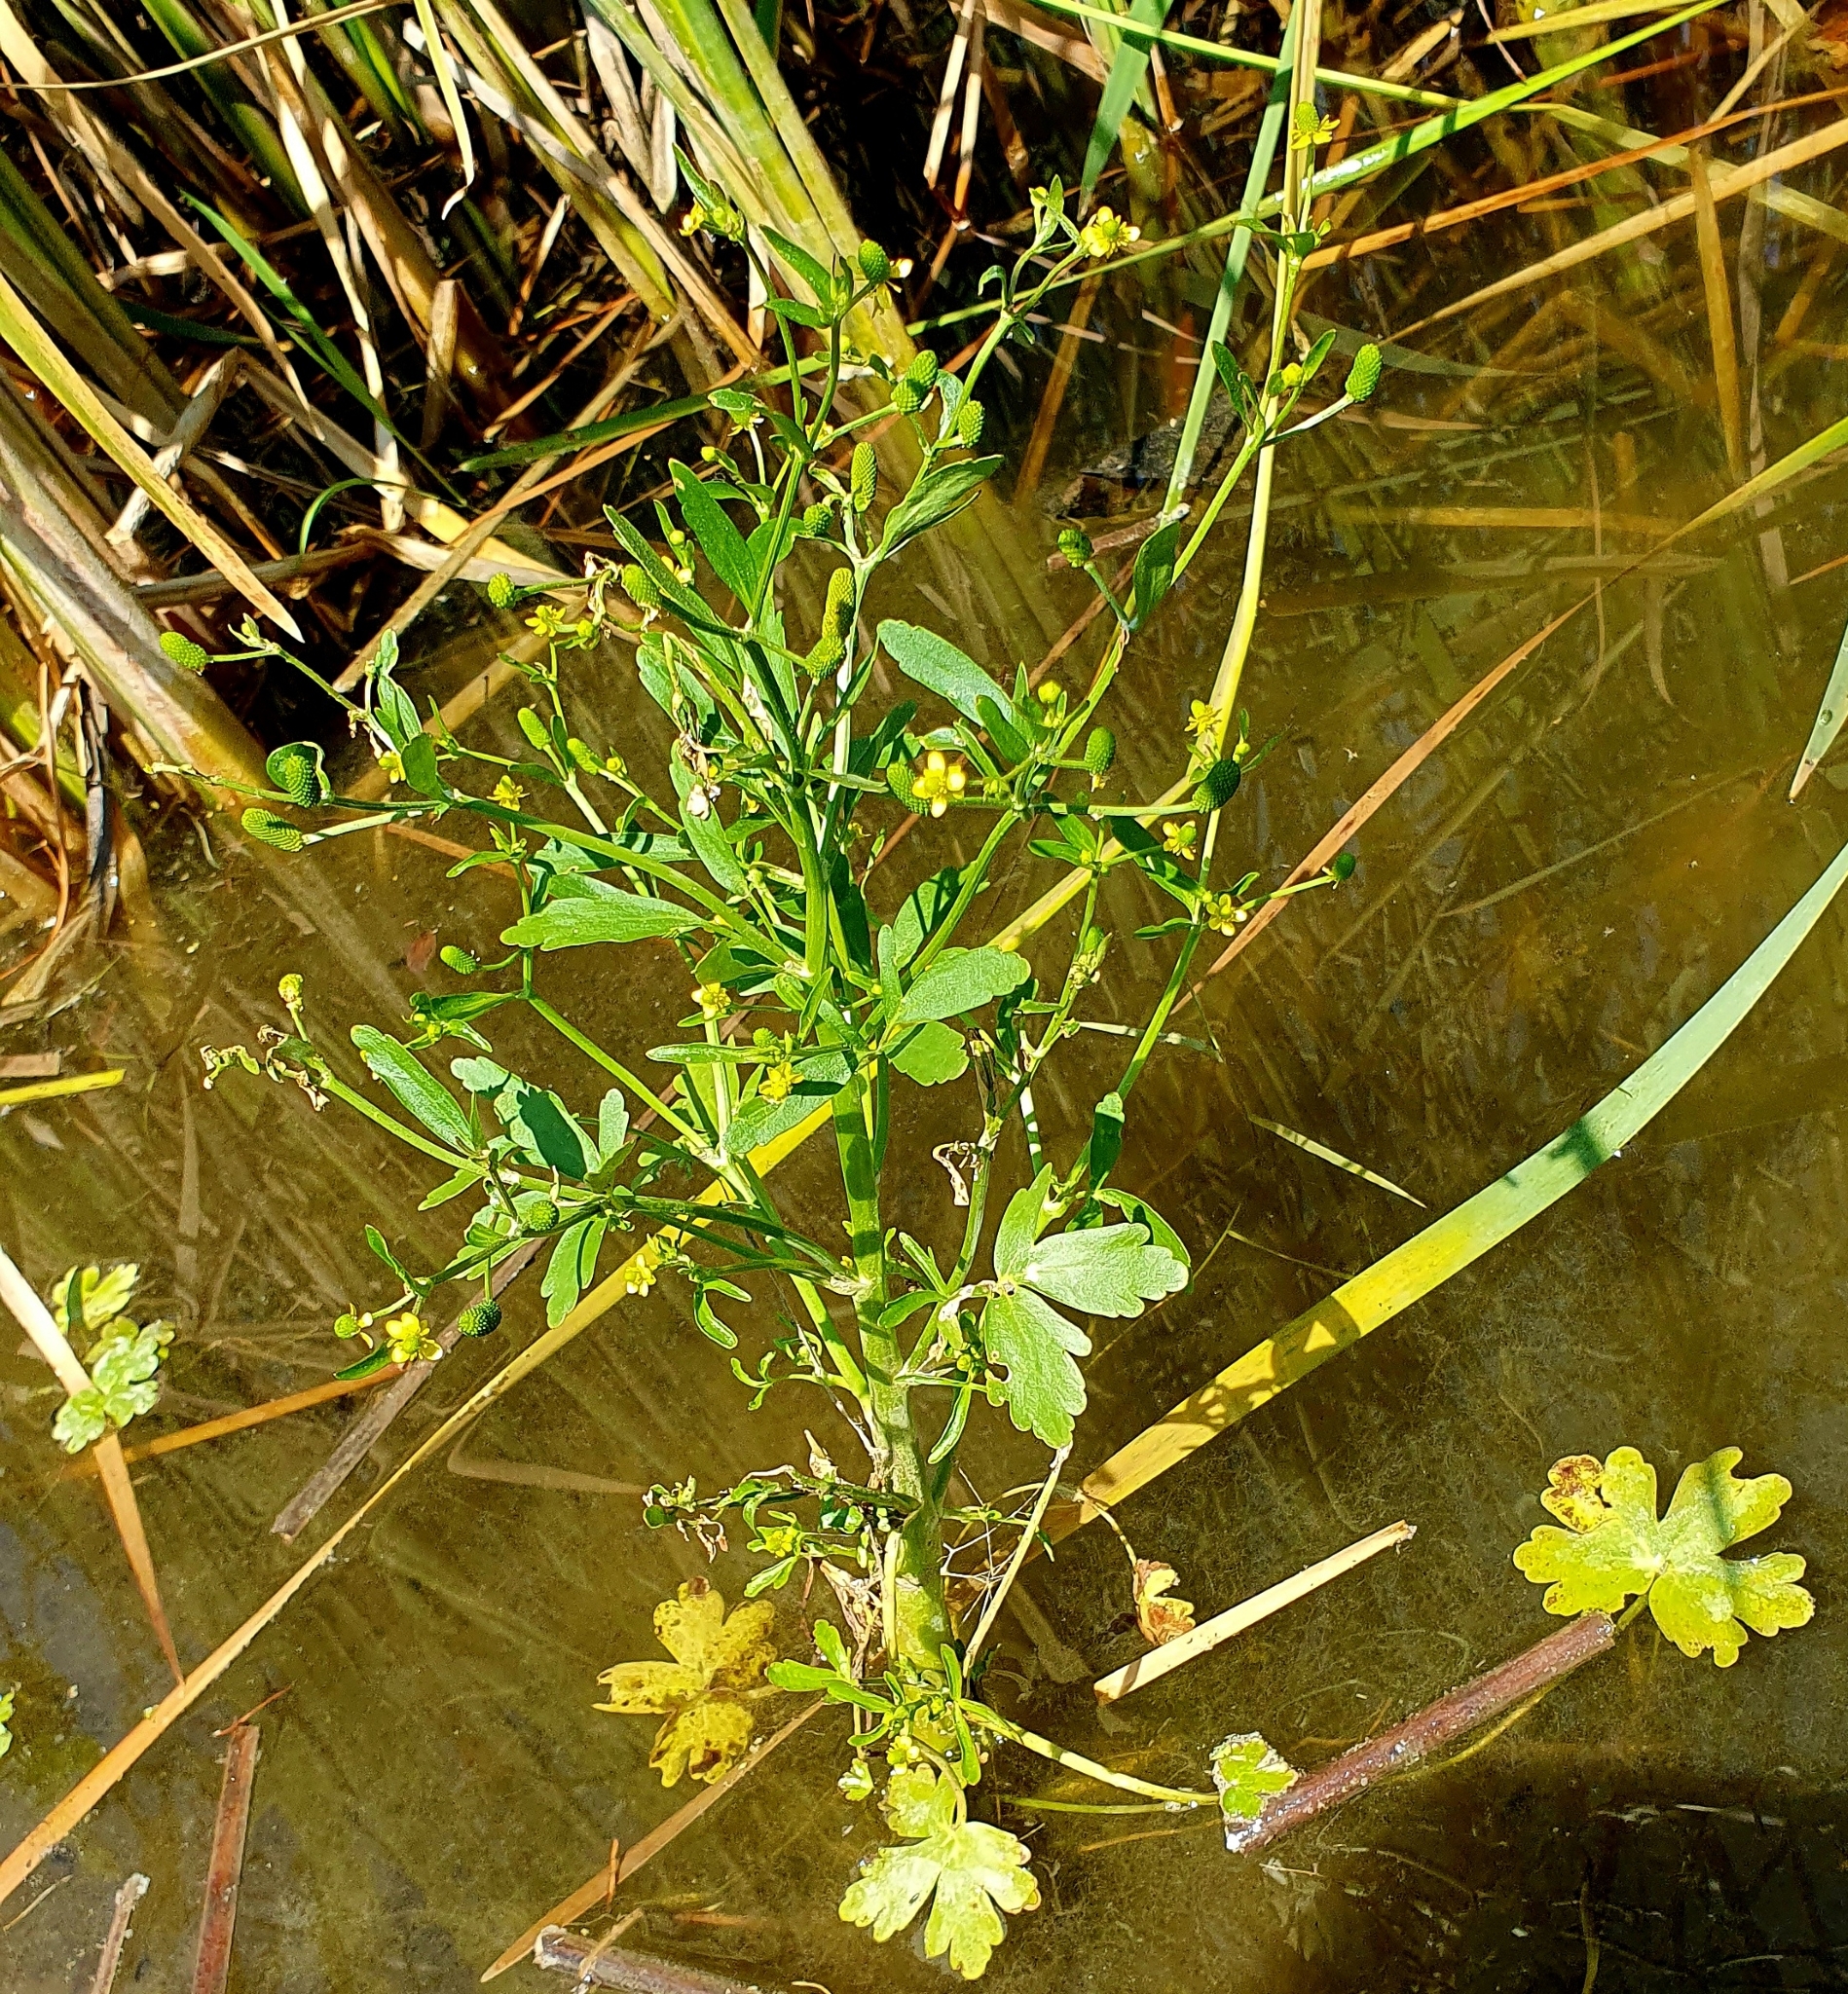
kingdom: Plantae
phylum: Tracheophyta
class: Magnoliopsida
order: Ranunculales
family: Ranunculaceae
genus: Ranunculus
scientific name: Ranunculus sceleratus
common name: Celery-leaved buttercup
